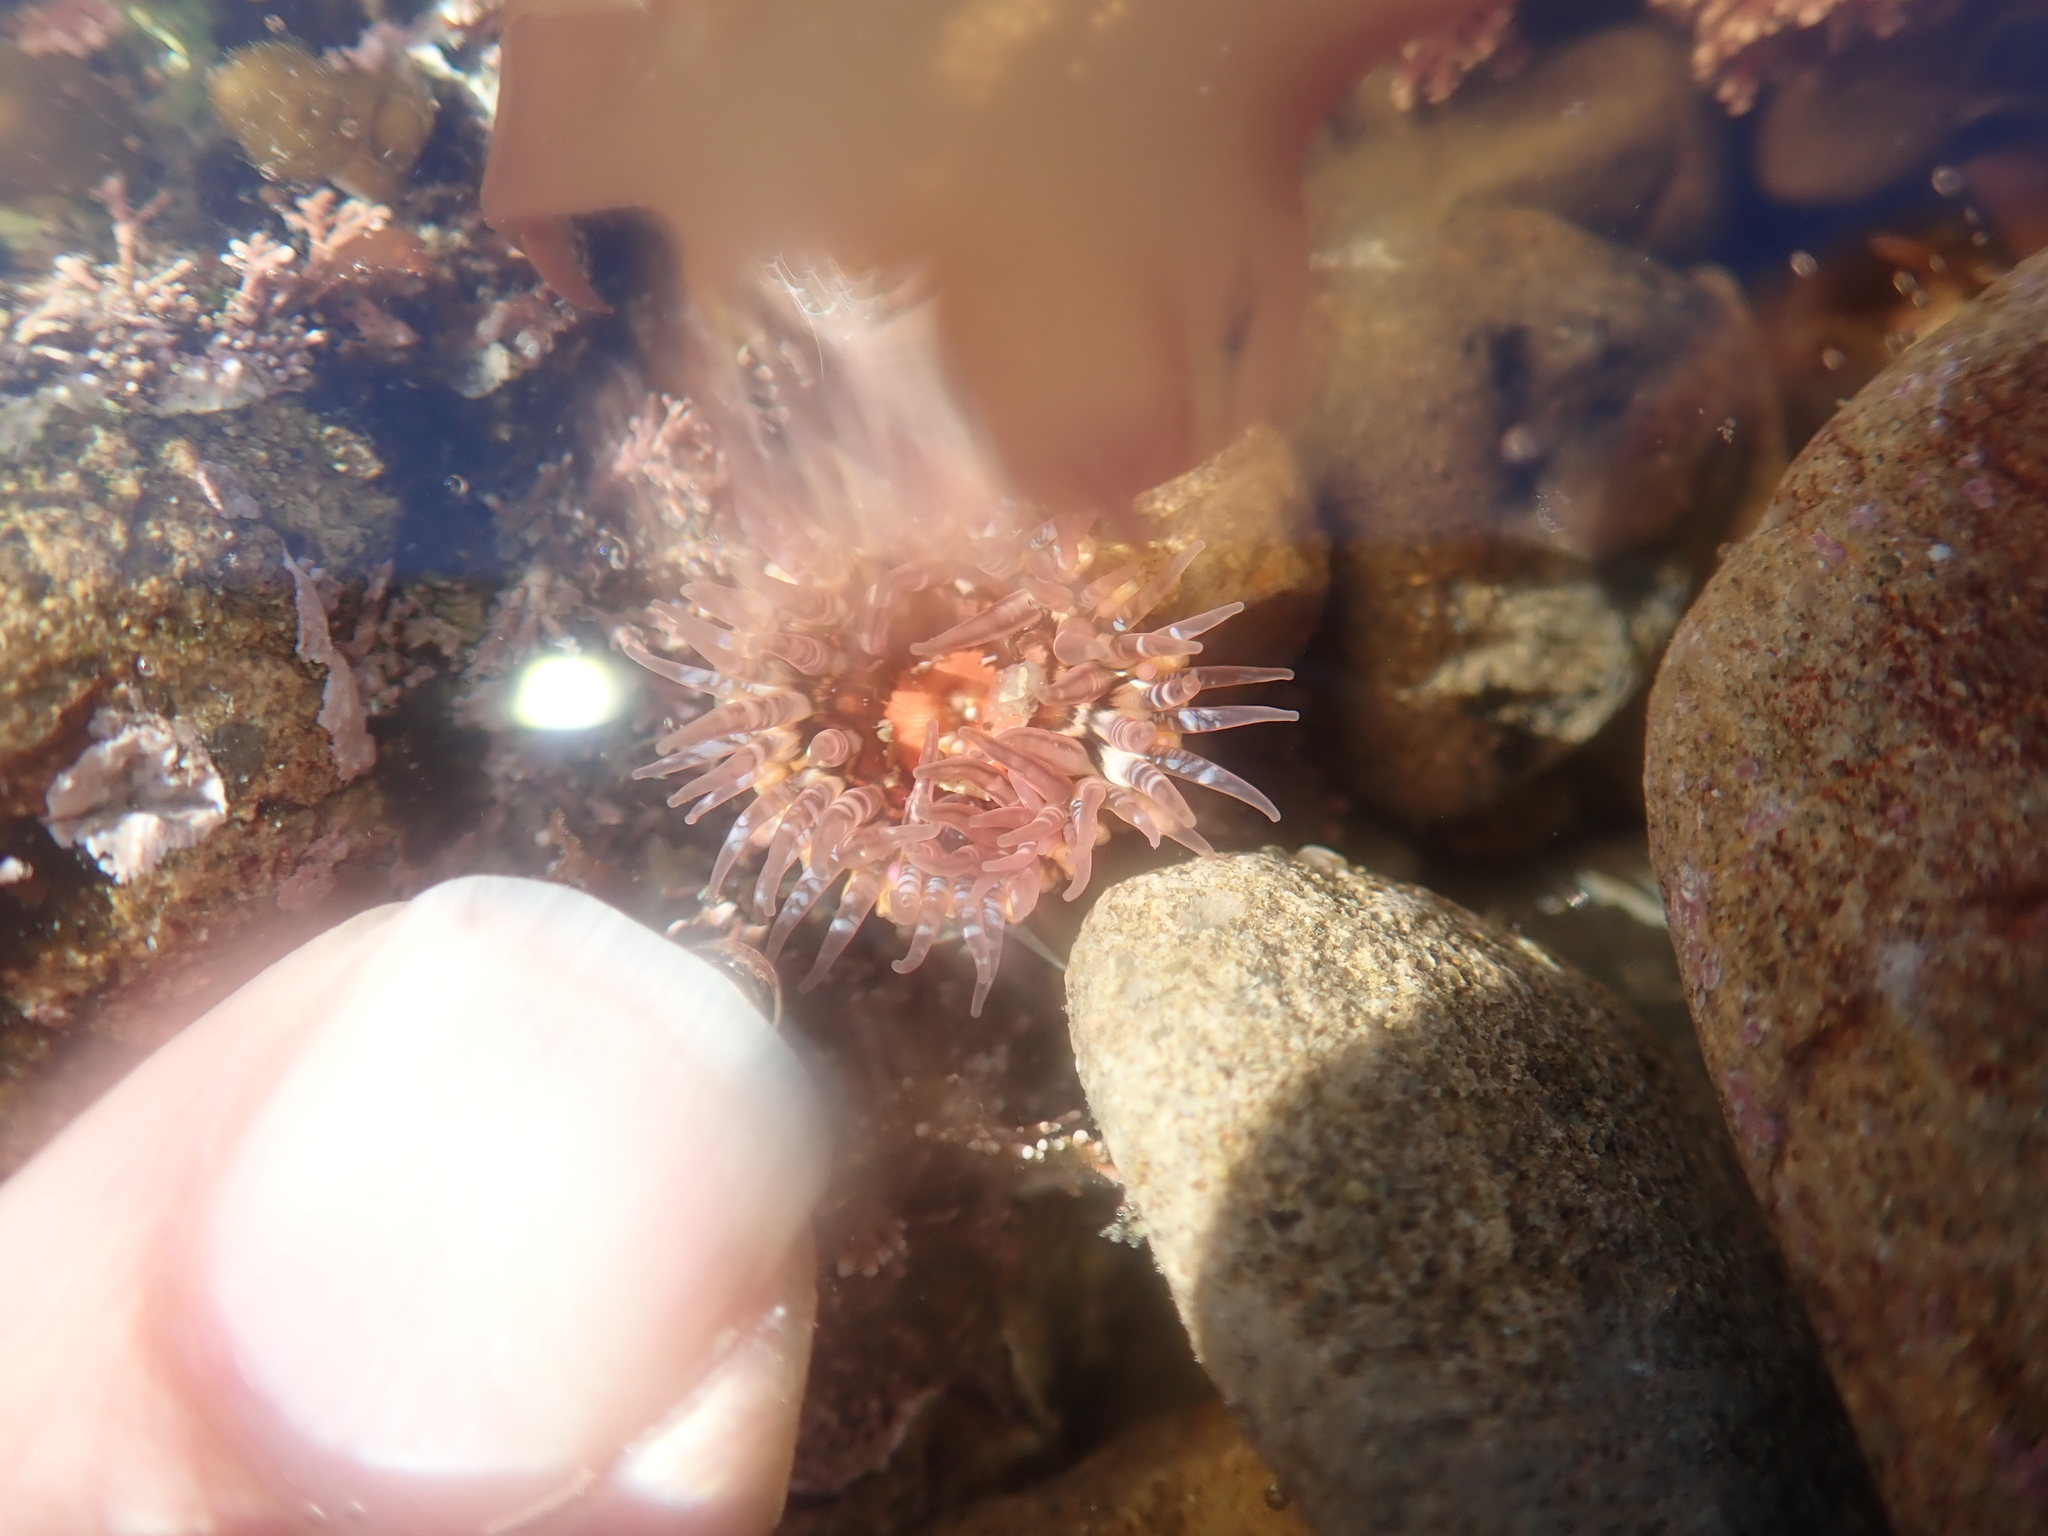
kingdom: Animalia
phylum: Cnidaria
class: Anthozoa
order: Actiniaria
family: Actiniidae
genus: Oulactis
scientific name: Oulactis muscosa
